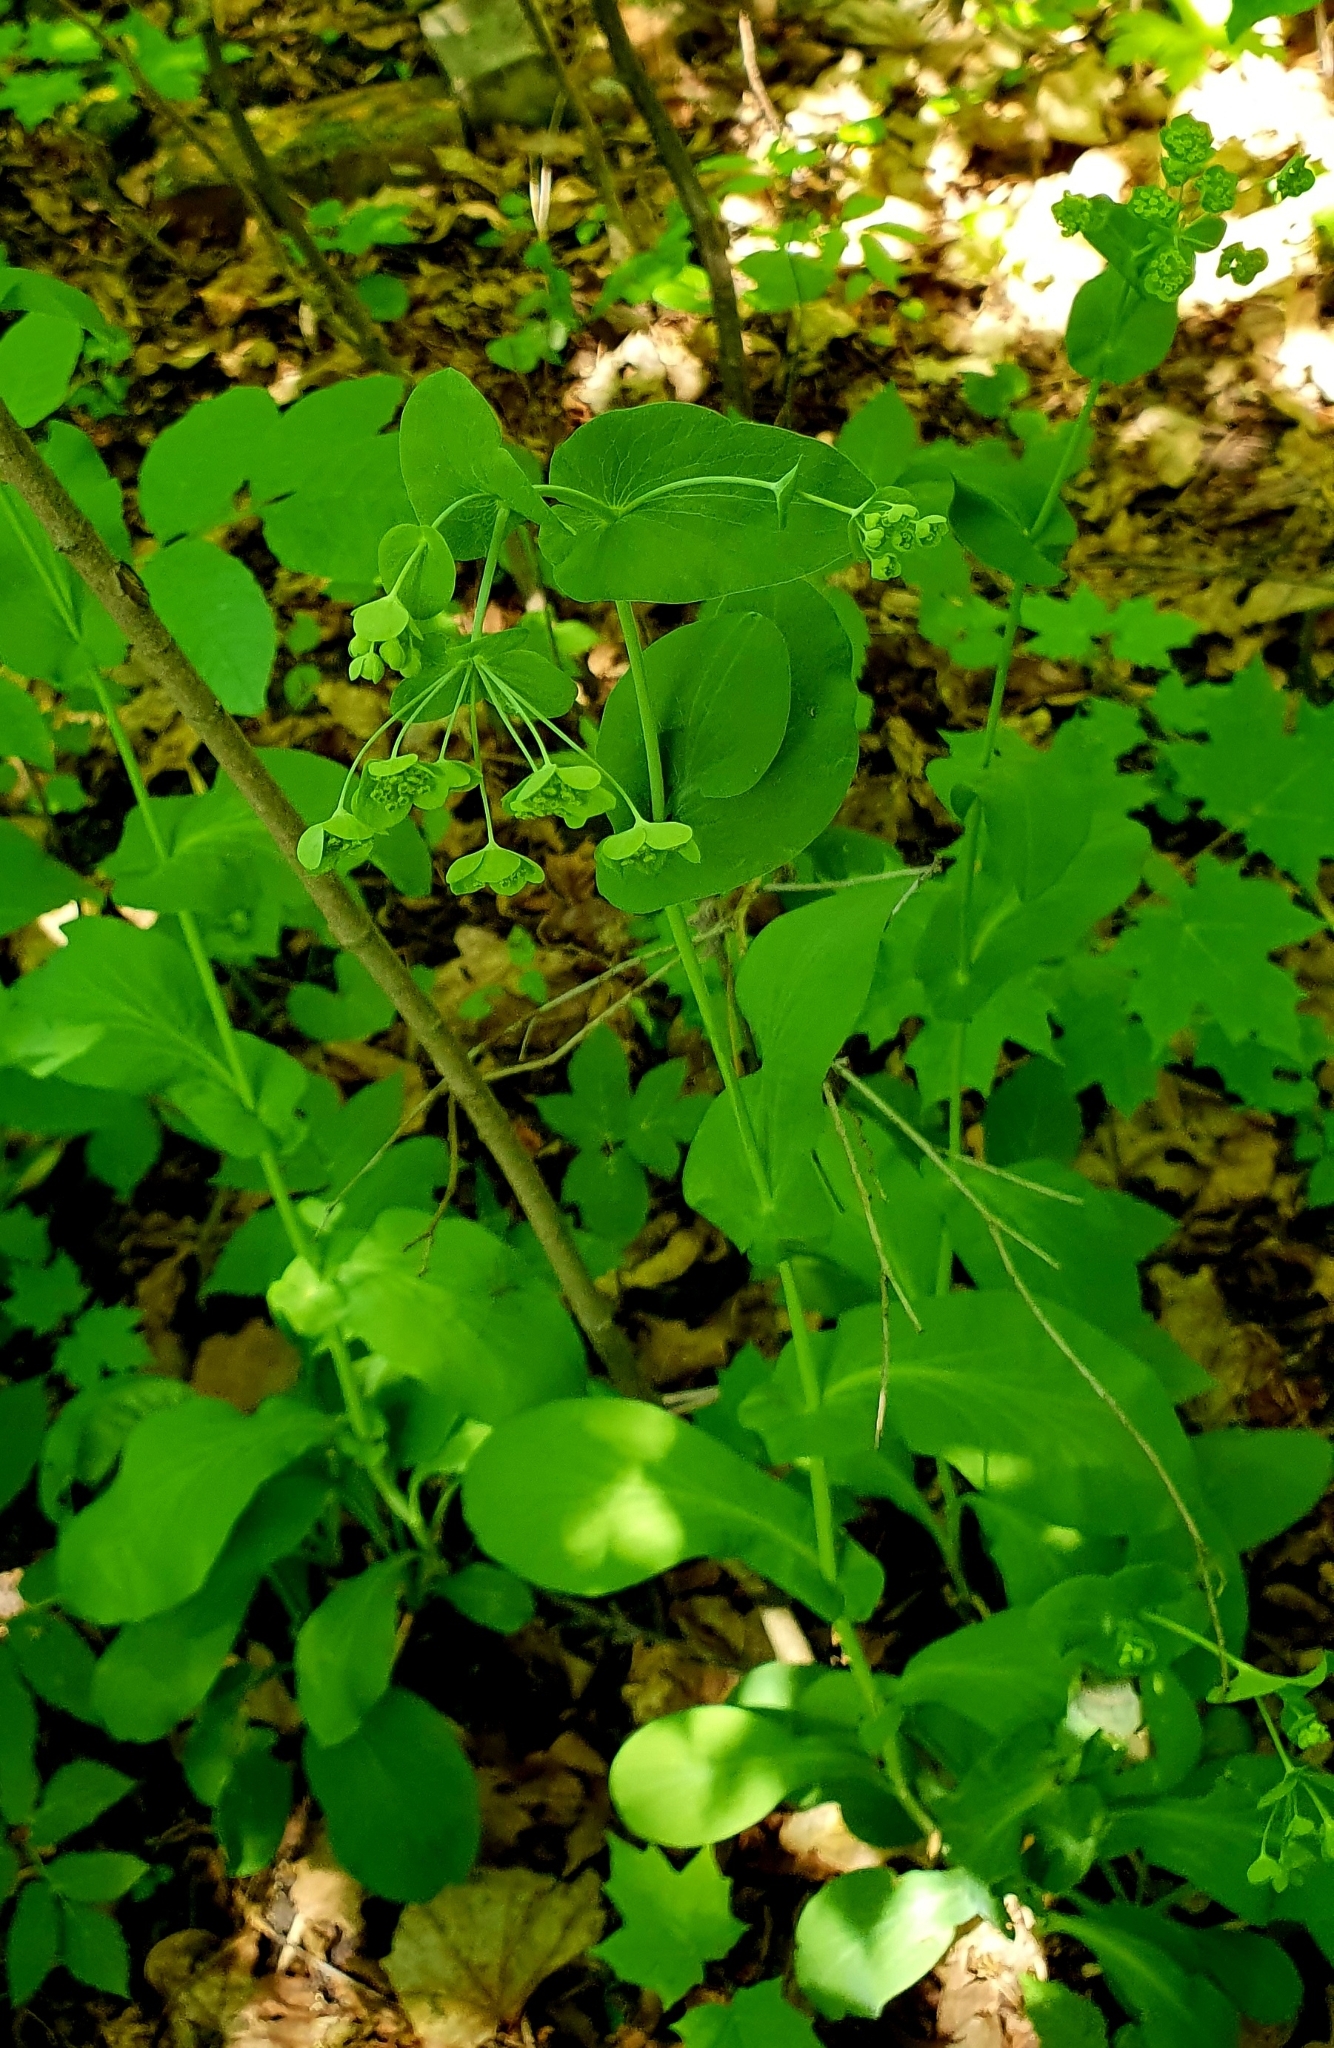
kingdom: Plantae
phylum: Tracheophyta
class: Magnoliopsida
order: Apiales
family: Apiaceae
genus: Bupleurum
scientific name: Bupleurum aureum
